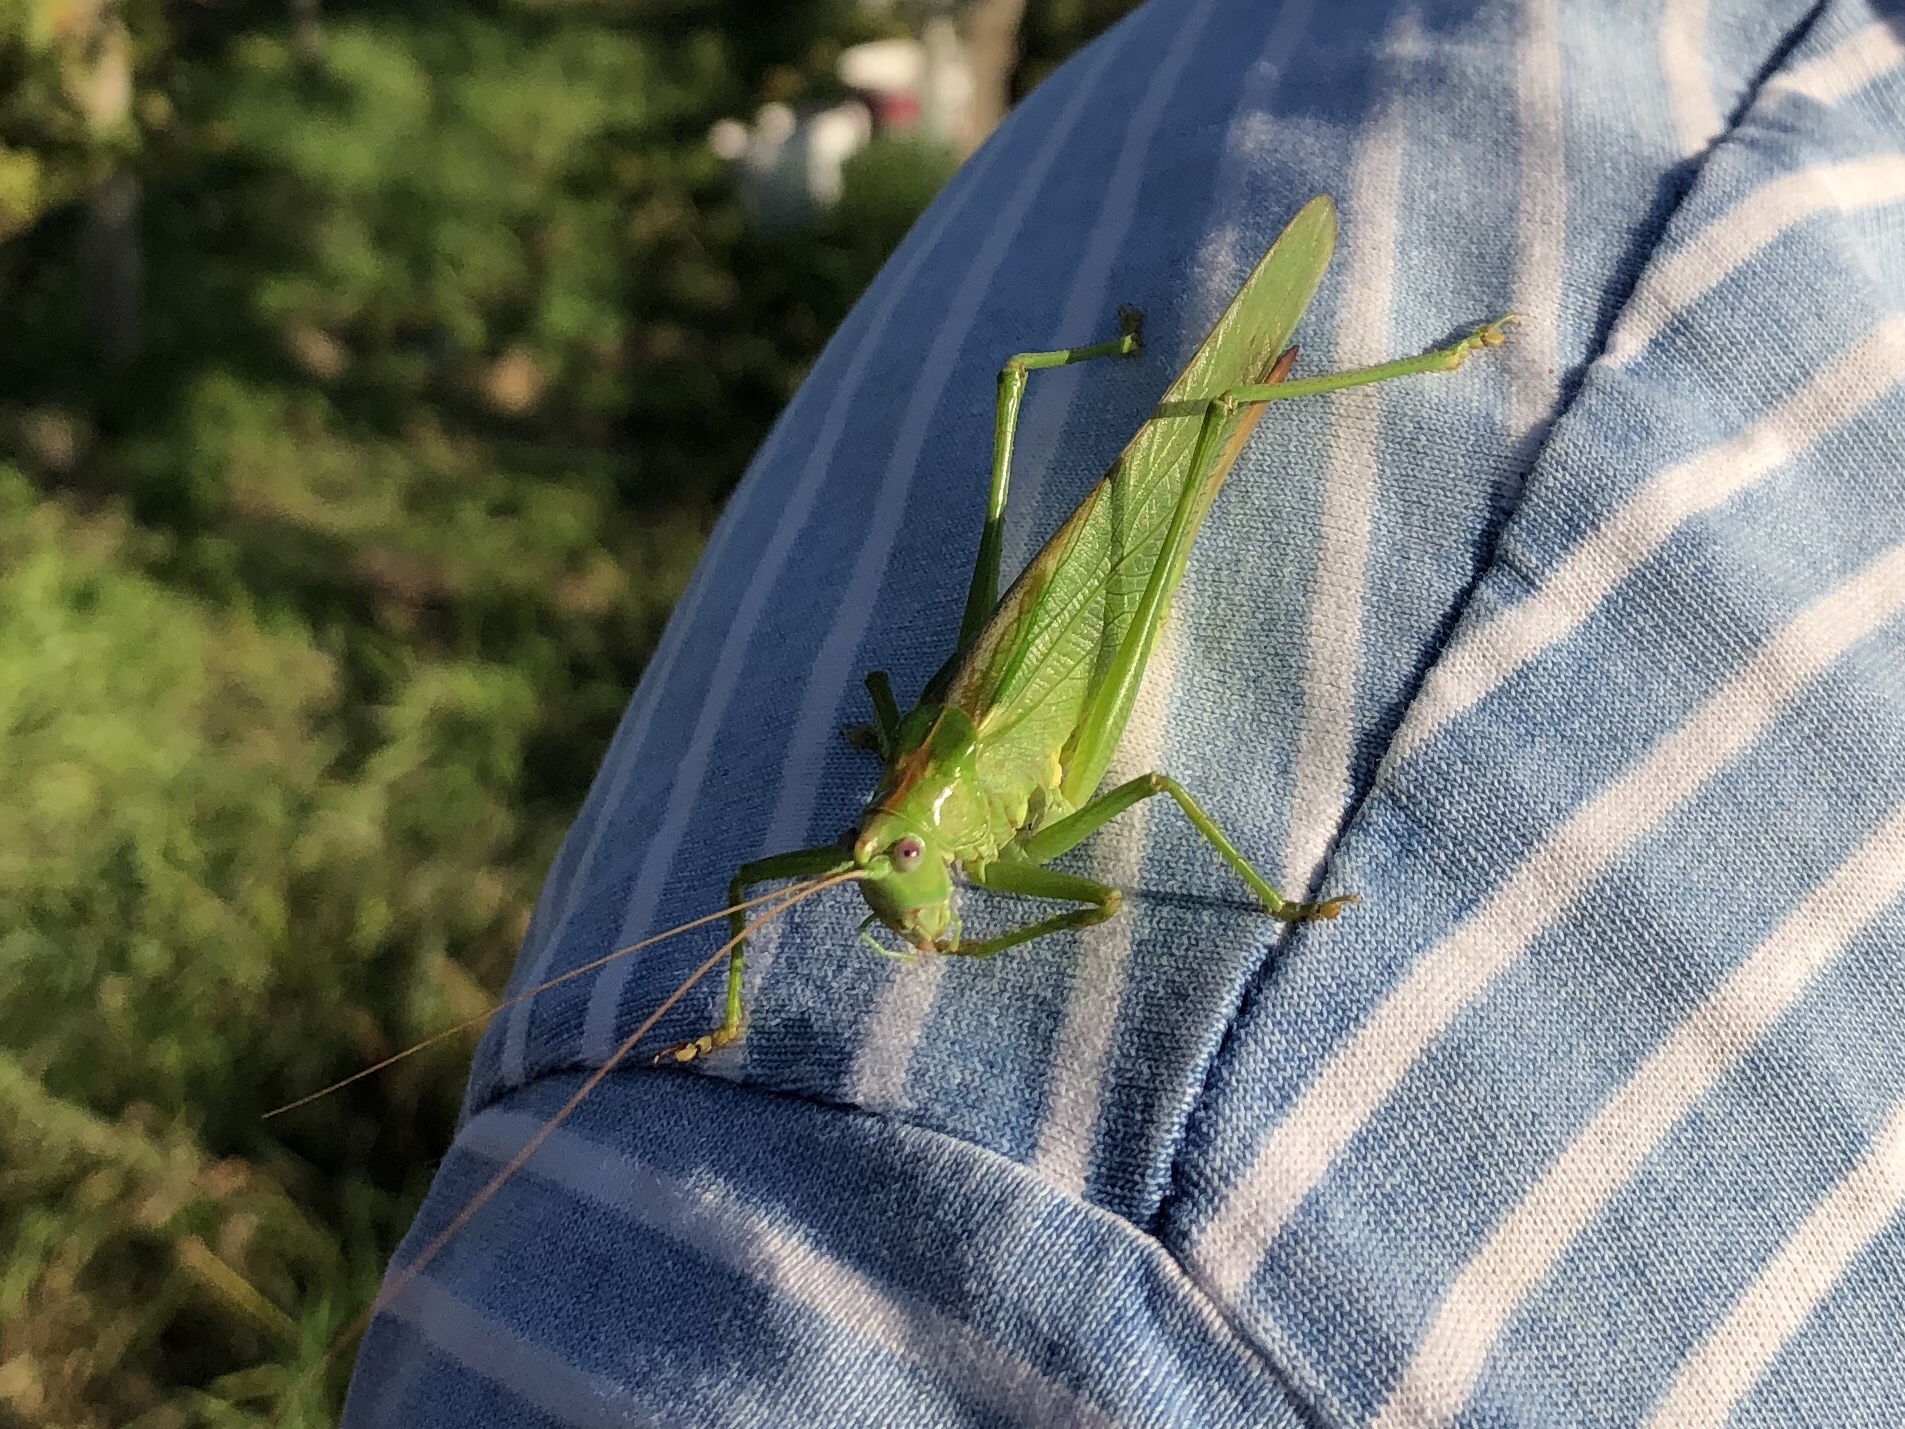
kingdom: Animalia
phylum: Arthropoda
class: Insecta
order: Orthoptera
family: Tettigoniidae
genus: Tettigonia
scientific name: Tettigonia viridissima
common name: Great green bush-cricket
